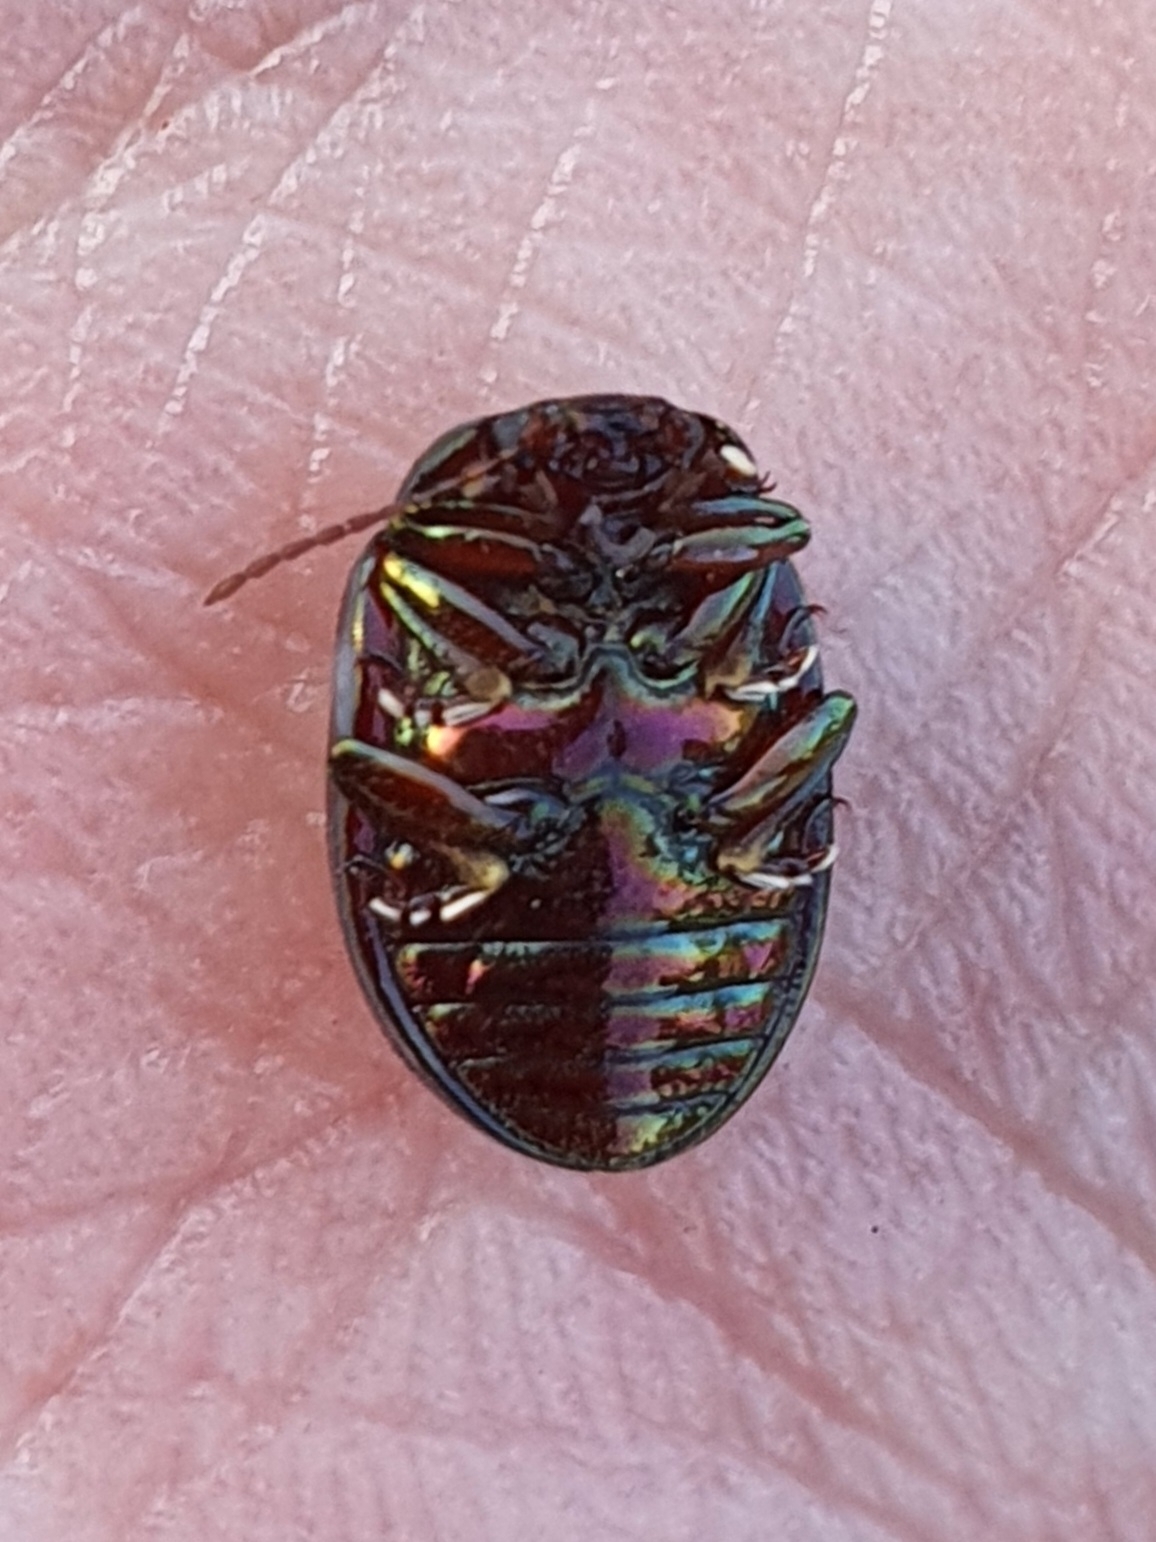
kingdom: Animalia
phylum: Arthropoda
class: Insecta
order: Coleoptera
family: Chrysomelidae
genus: Chrysolina
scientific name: Chrysolina americana
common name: Rosemary beetle
